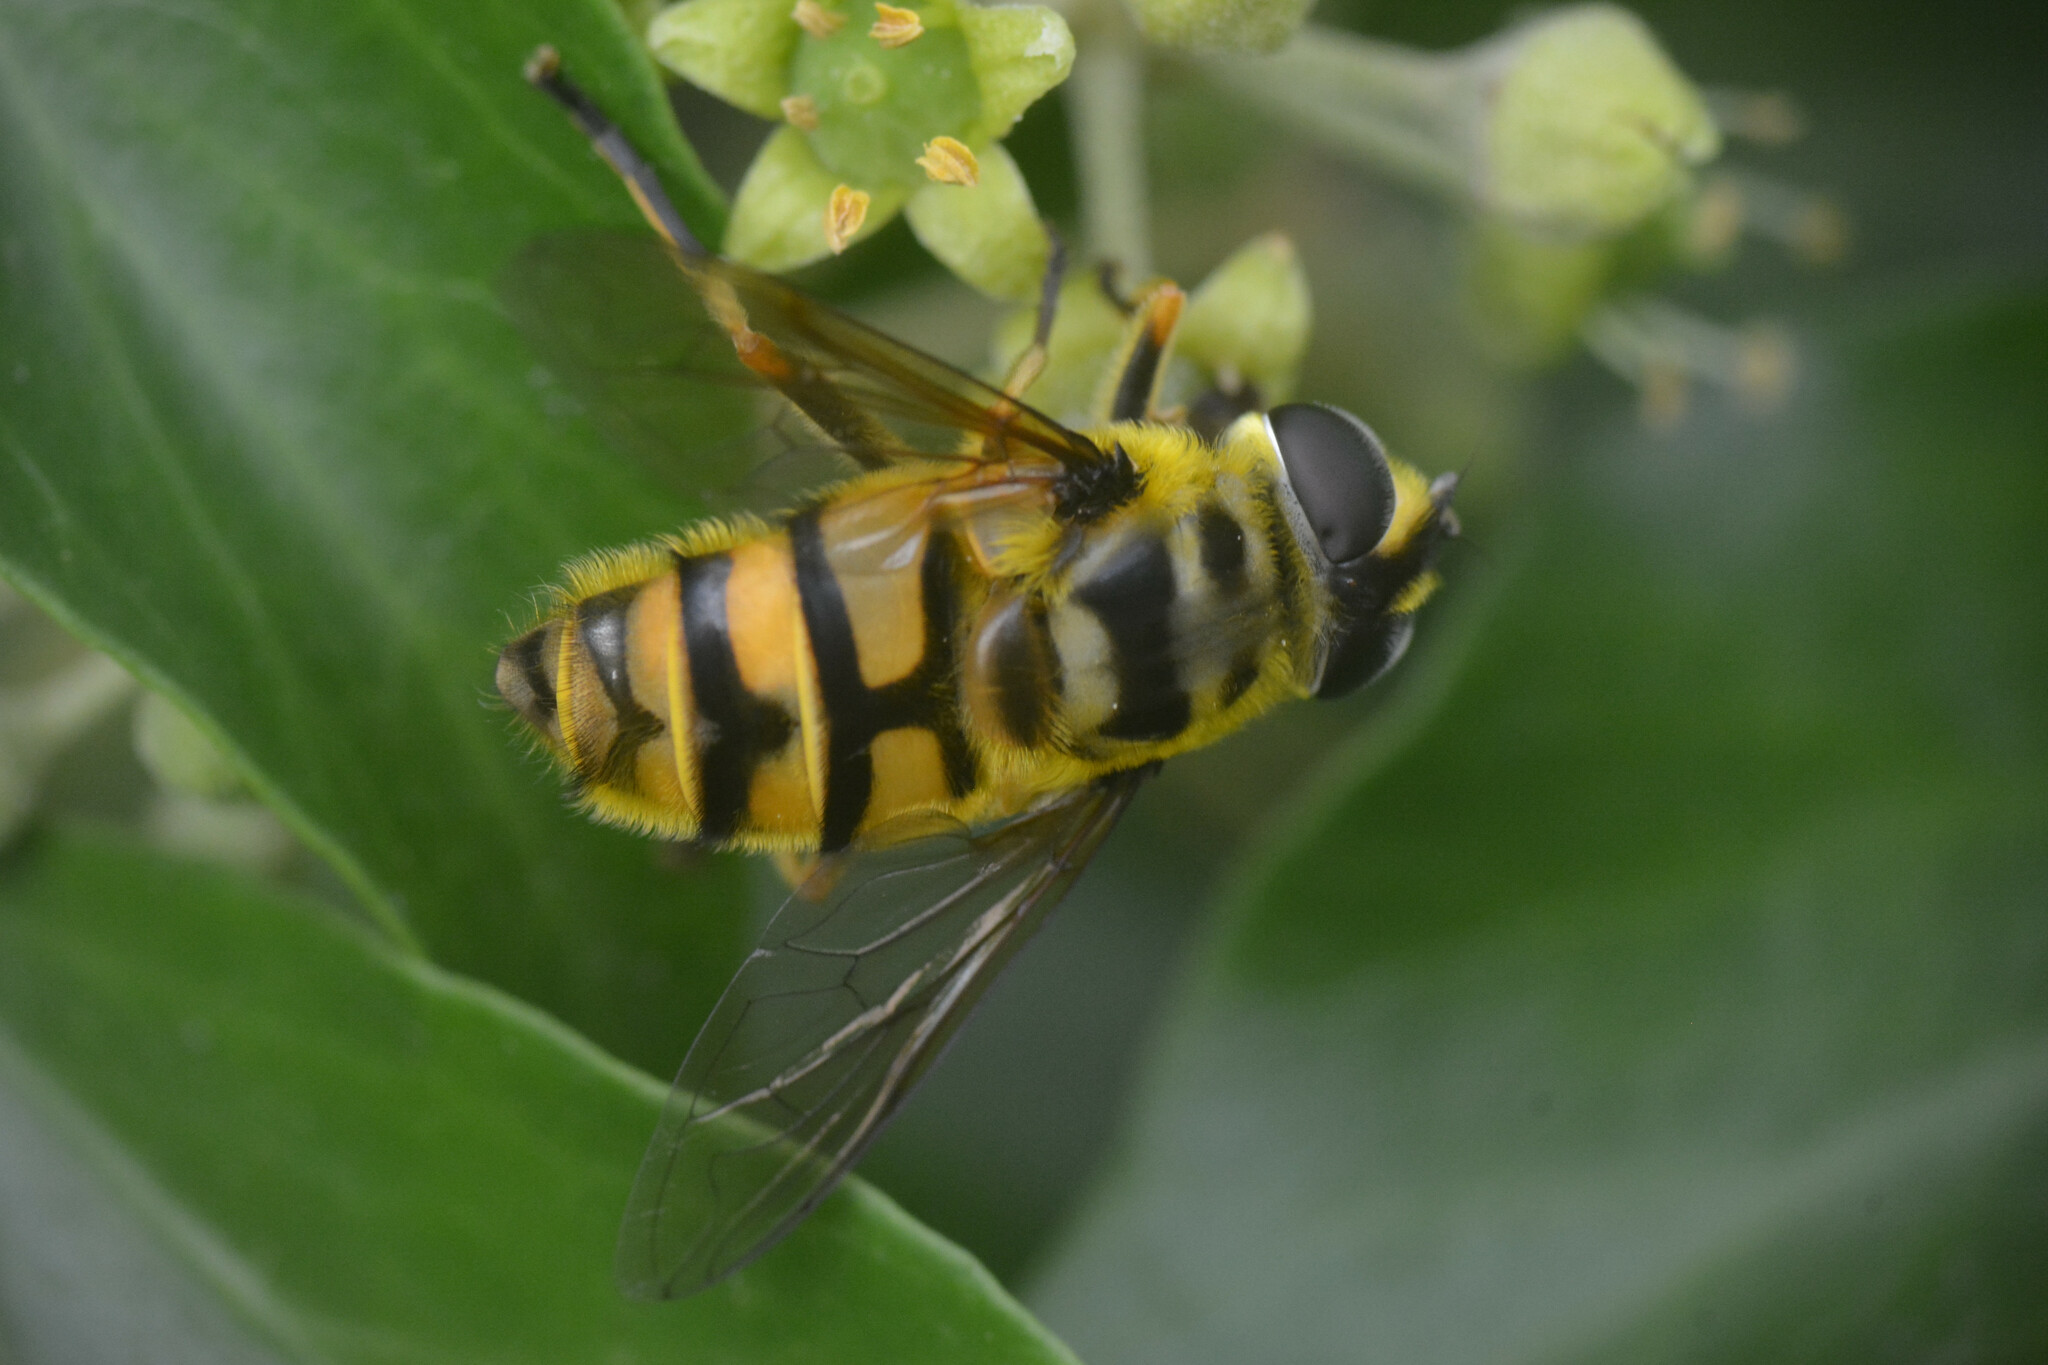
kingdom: Animalia
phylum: Arthropoda
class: Insecta
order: Diptera
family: Syrphidae
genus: Myathropa
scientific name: Myathropa florea
